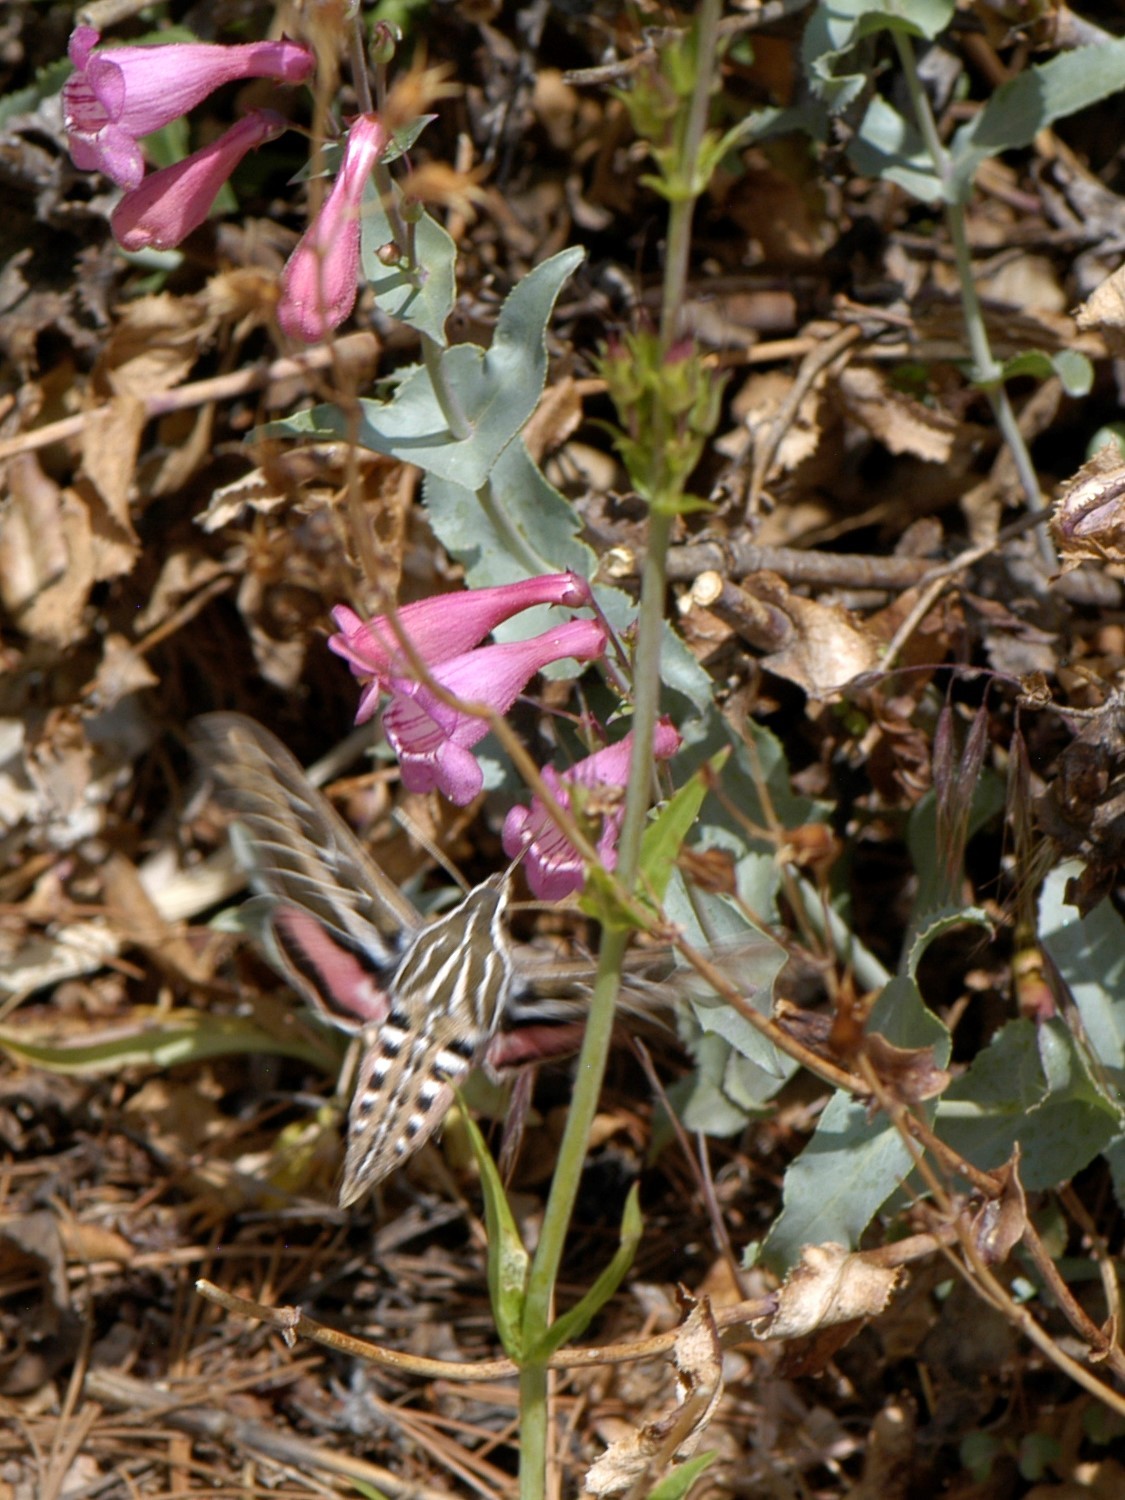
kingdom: Animalia
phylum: Arthropoda
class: Insecta
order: Lepidoptera
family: Sphingidae
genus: Hyles
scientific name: Hyles lineata
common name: White-lined sphinx
